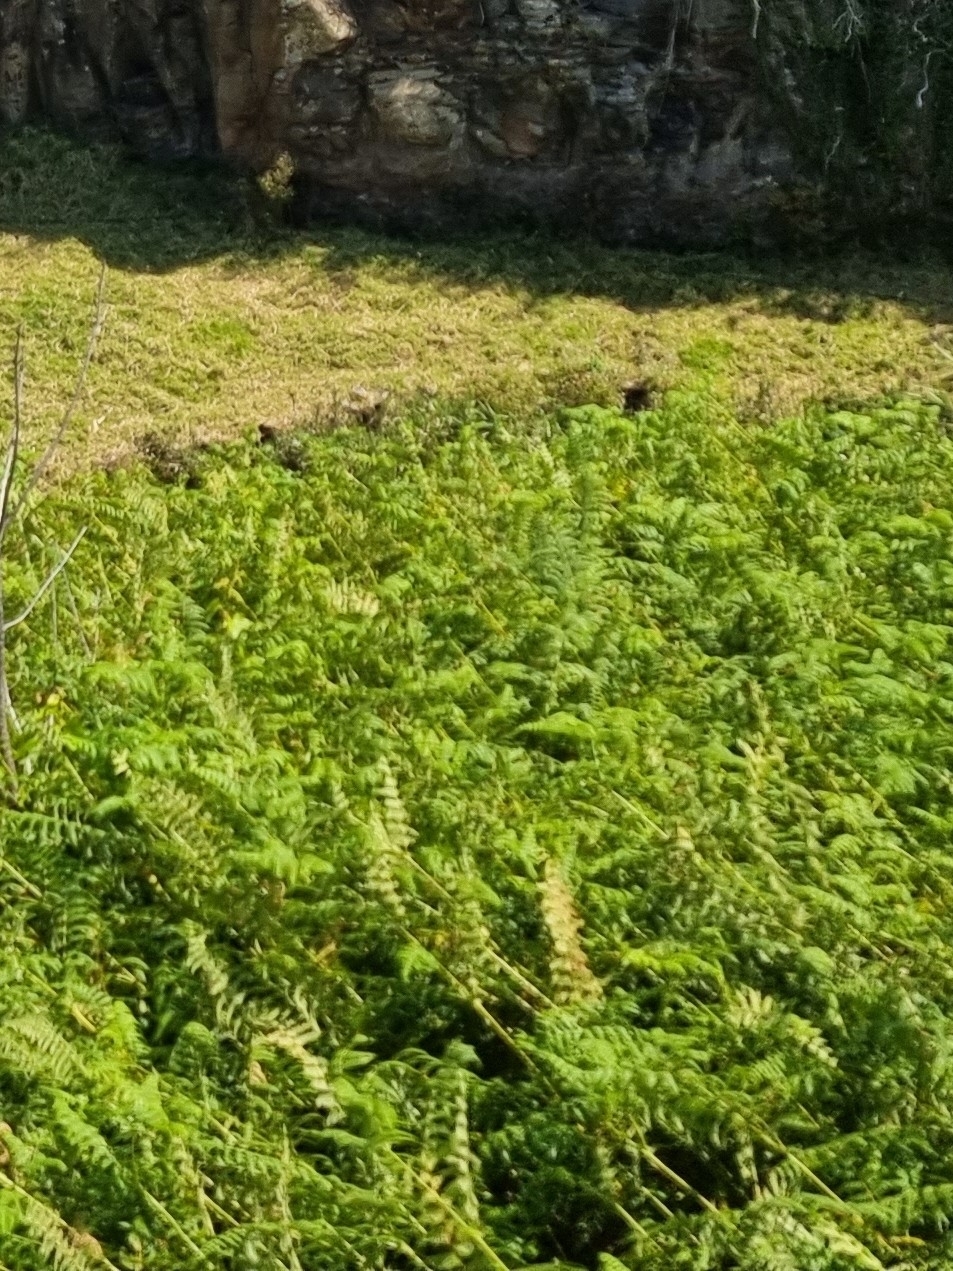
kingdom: Plantae
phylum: Tracheophyta
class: Polypodiopsida
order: Polypodiales
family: Dennstaedtiaceae
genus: Pteridium
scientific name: Pteridium aquilinum
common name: Bracken
